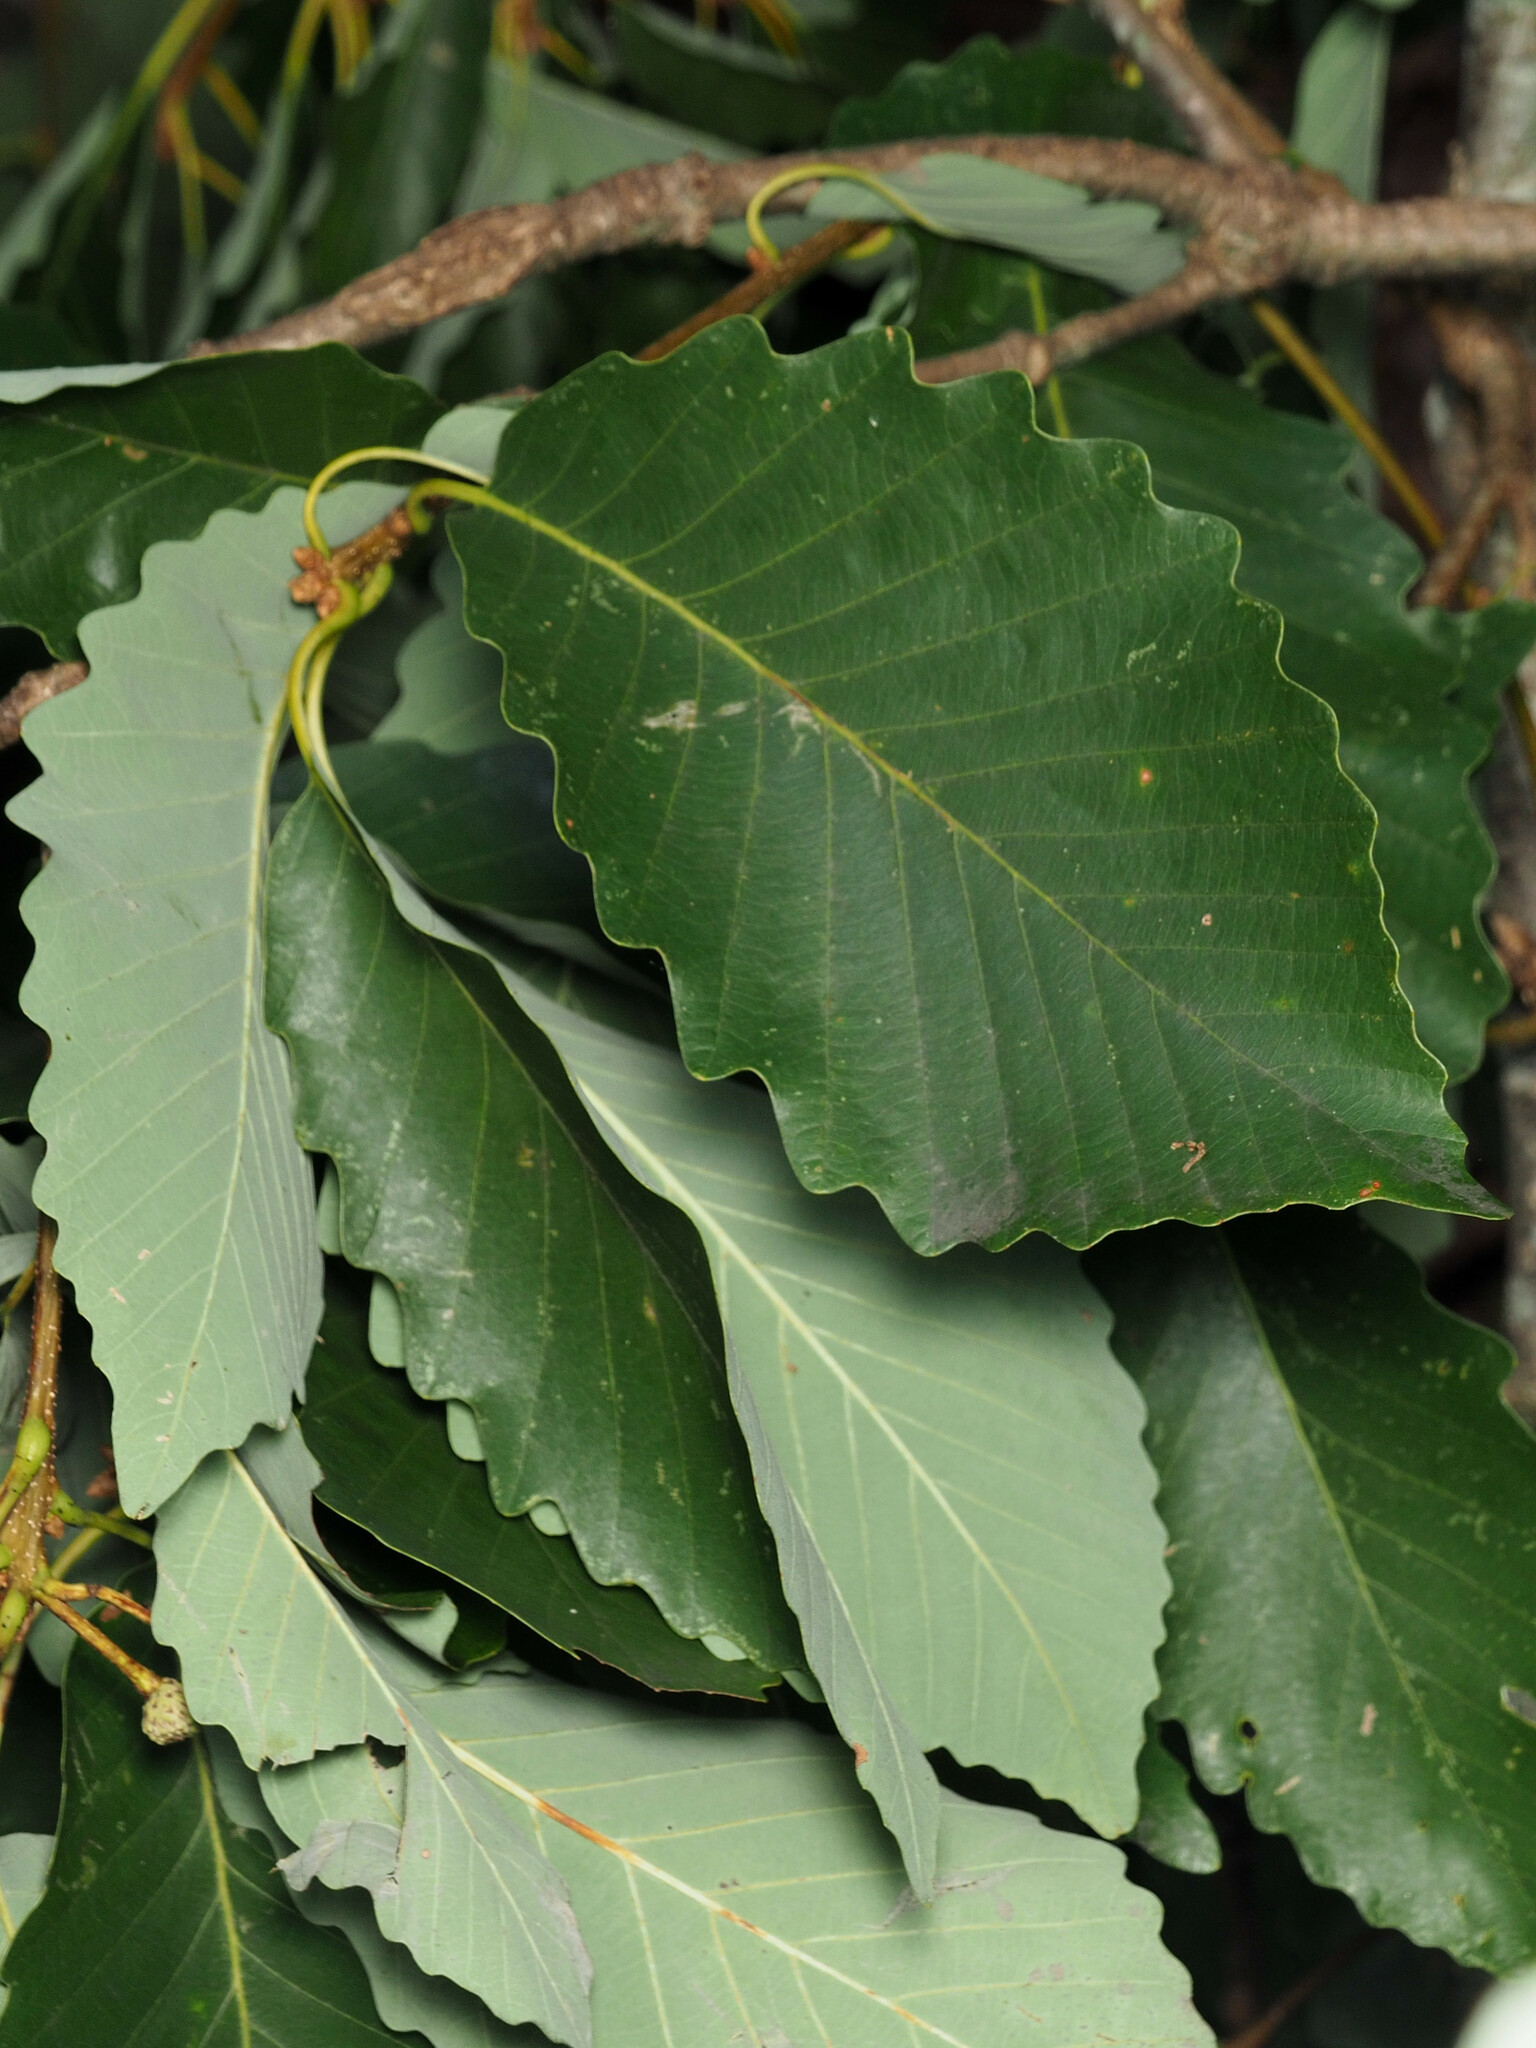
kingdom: Plantae
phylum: Tracheophyta
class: Magnoliopsida
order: Fagales
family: Fagaceae
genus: Quercus
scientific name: Quercus montana
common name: Chestnut oak
